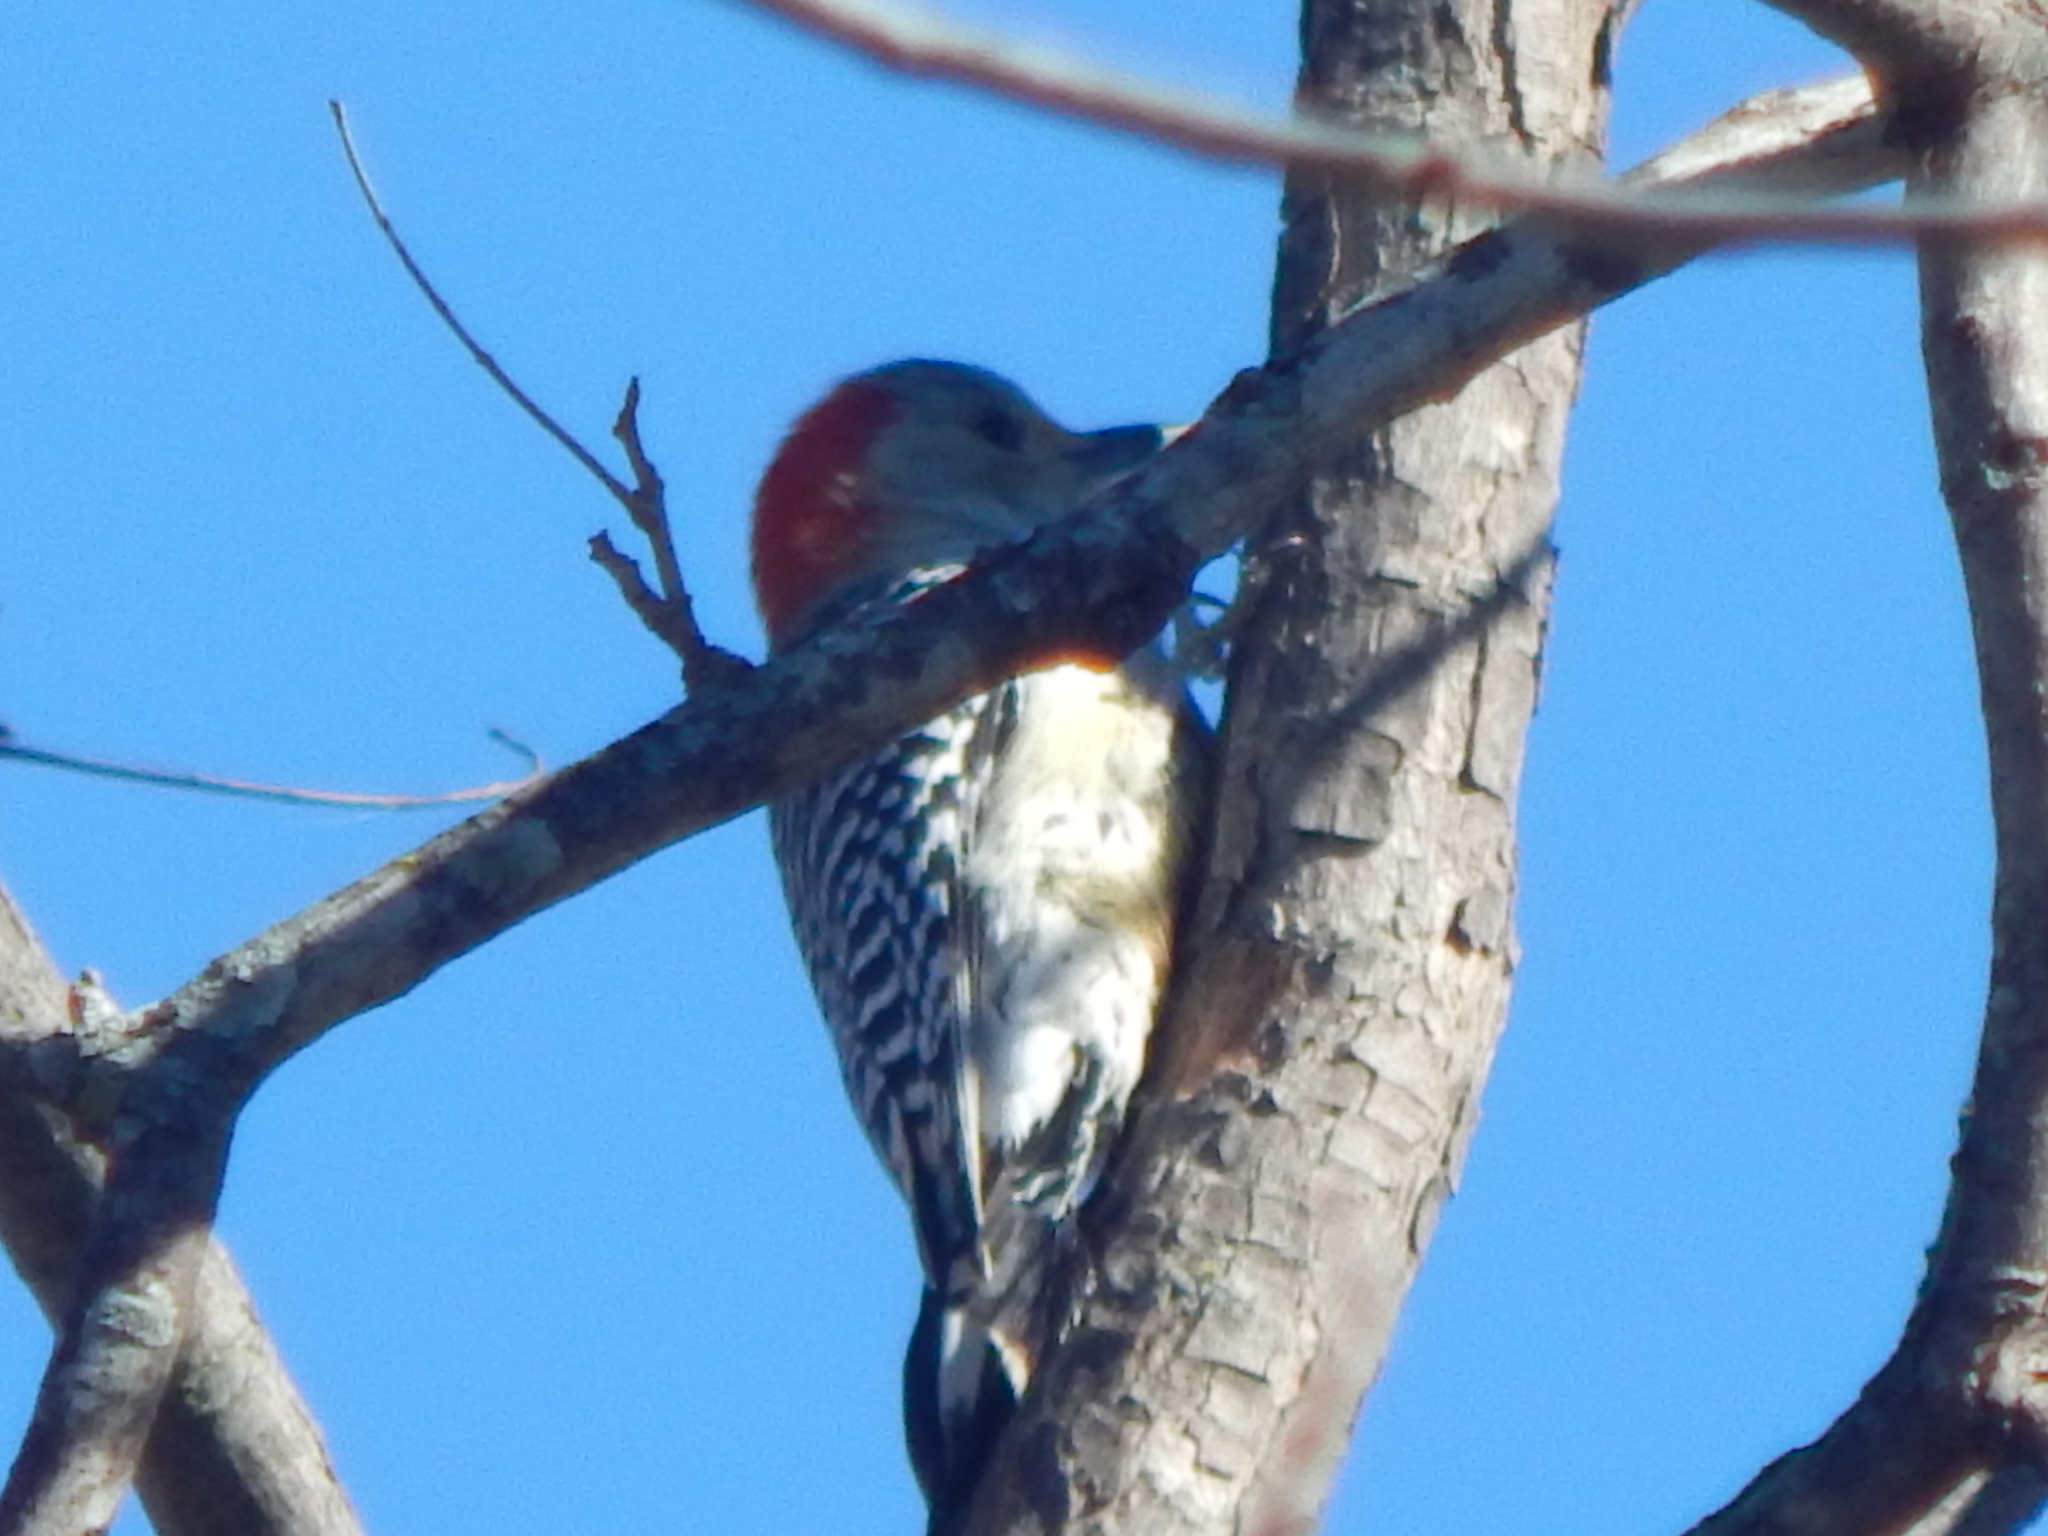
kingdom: Animalia
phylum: Chordata
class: Aves
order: Piciformes
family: Picidae
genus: Melanerpes
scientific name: Melanerpes carolinus
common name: Red-bellied woodpecker
